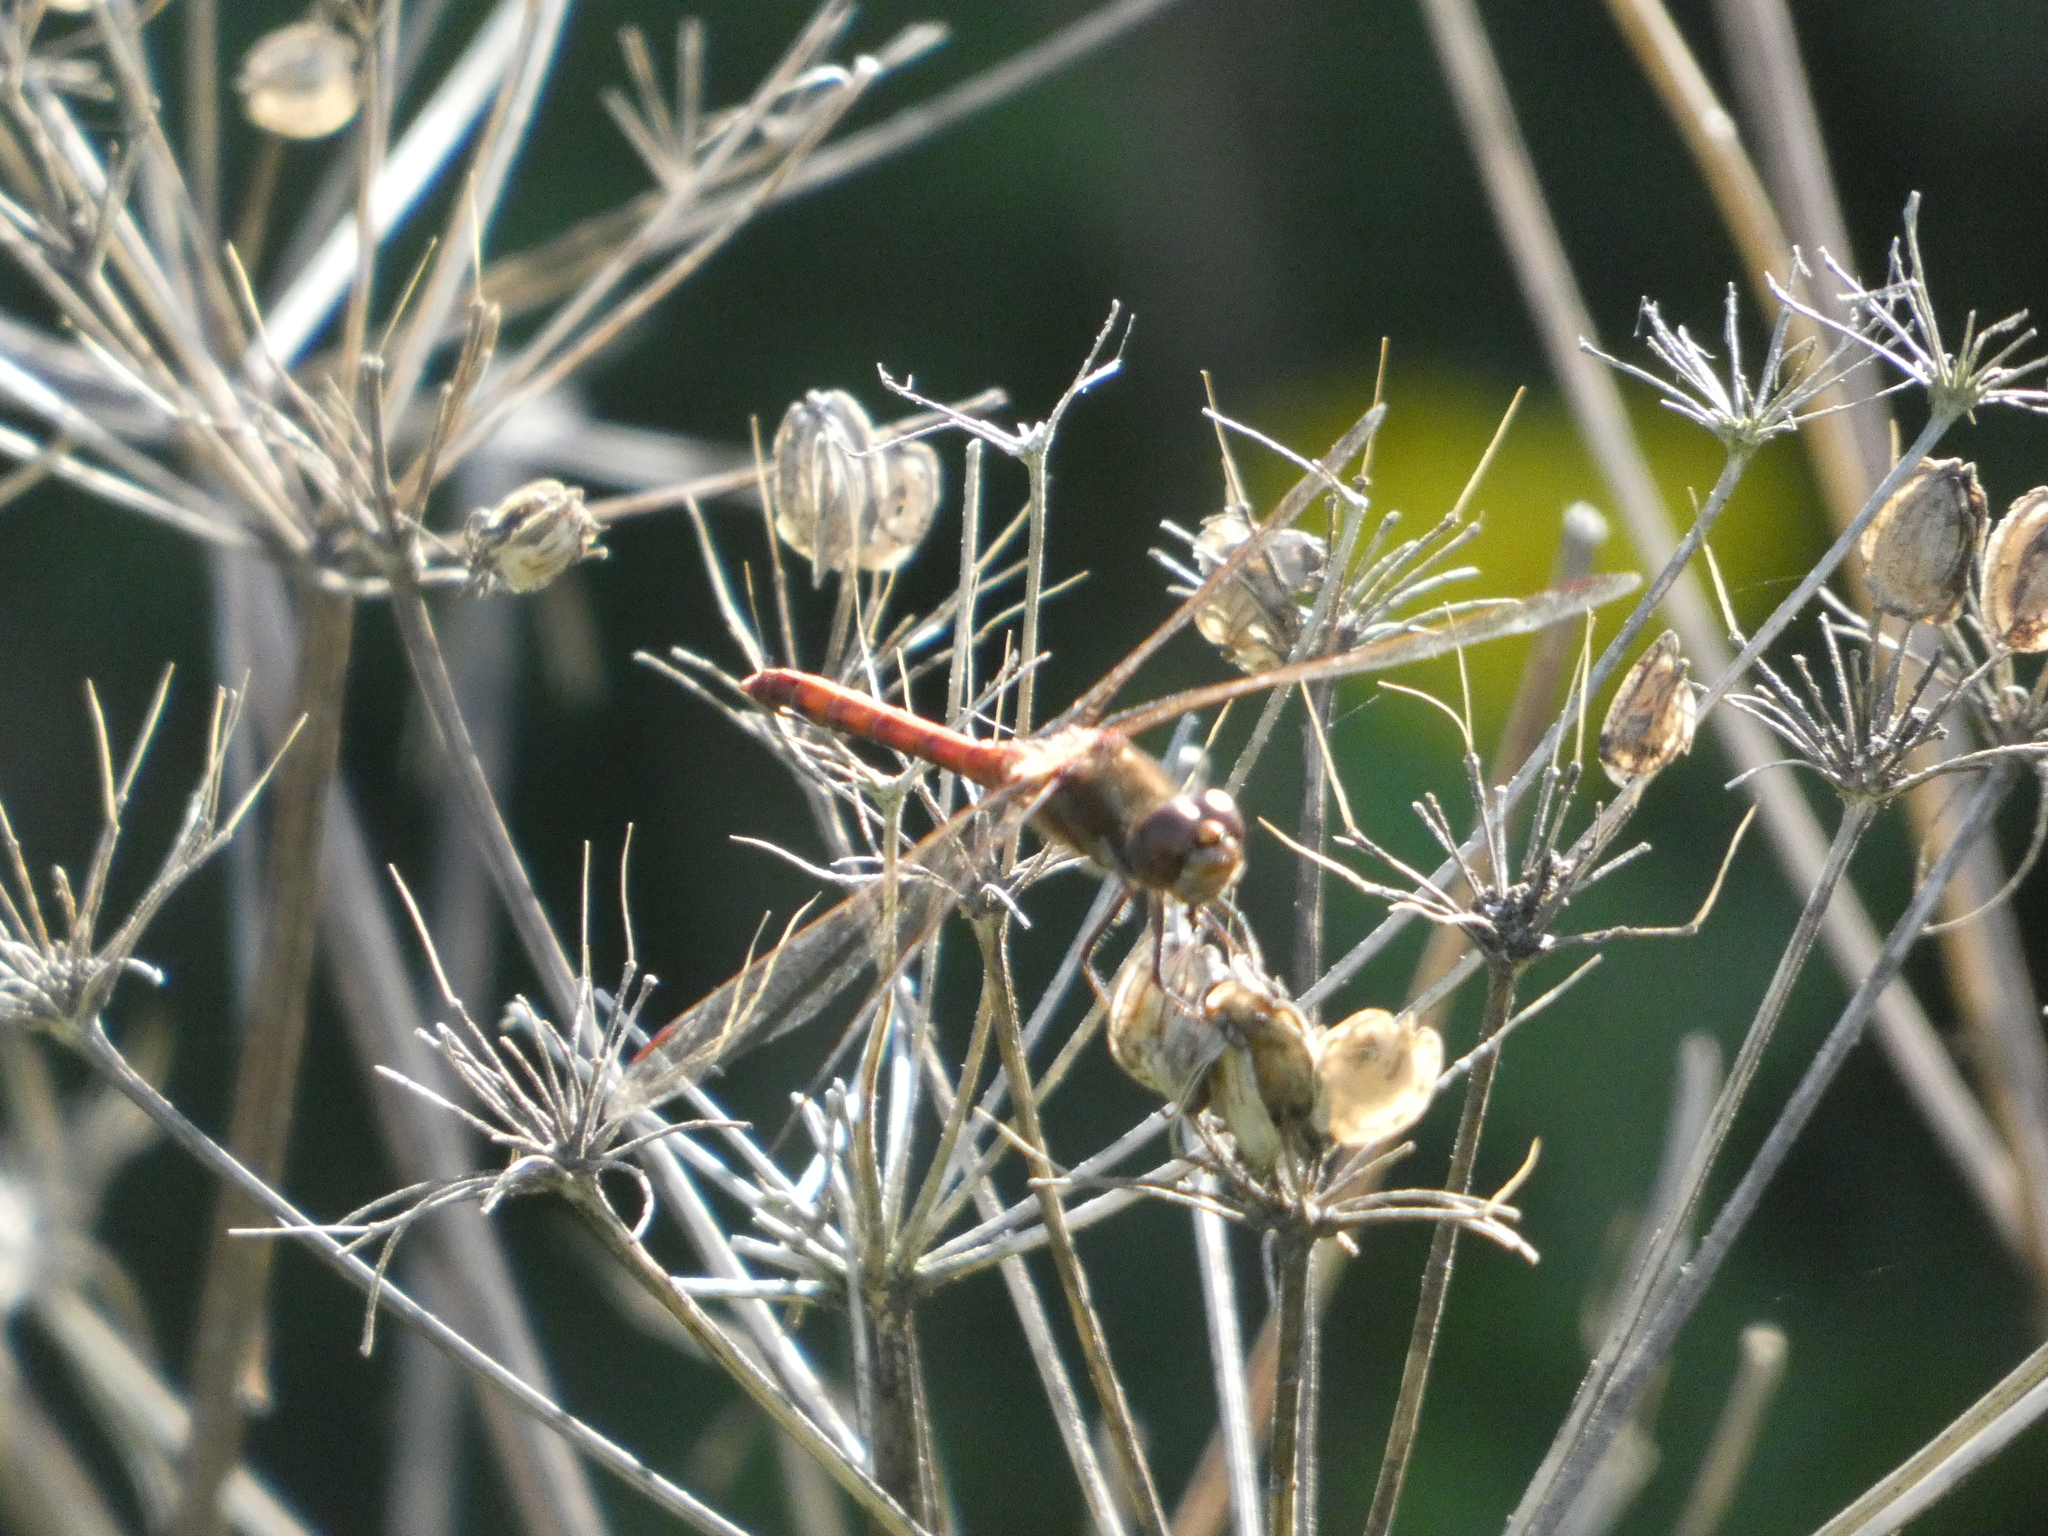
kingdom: Animalia
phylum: Arthropoda
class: Insecta
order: Odonata
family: Libellulidae
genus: Sympetrum
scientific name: Sympetrum striolatum
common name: Common darter
